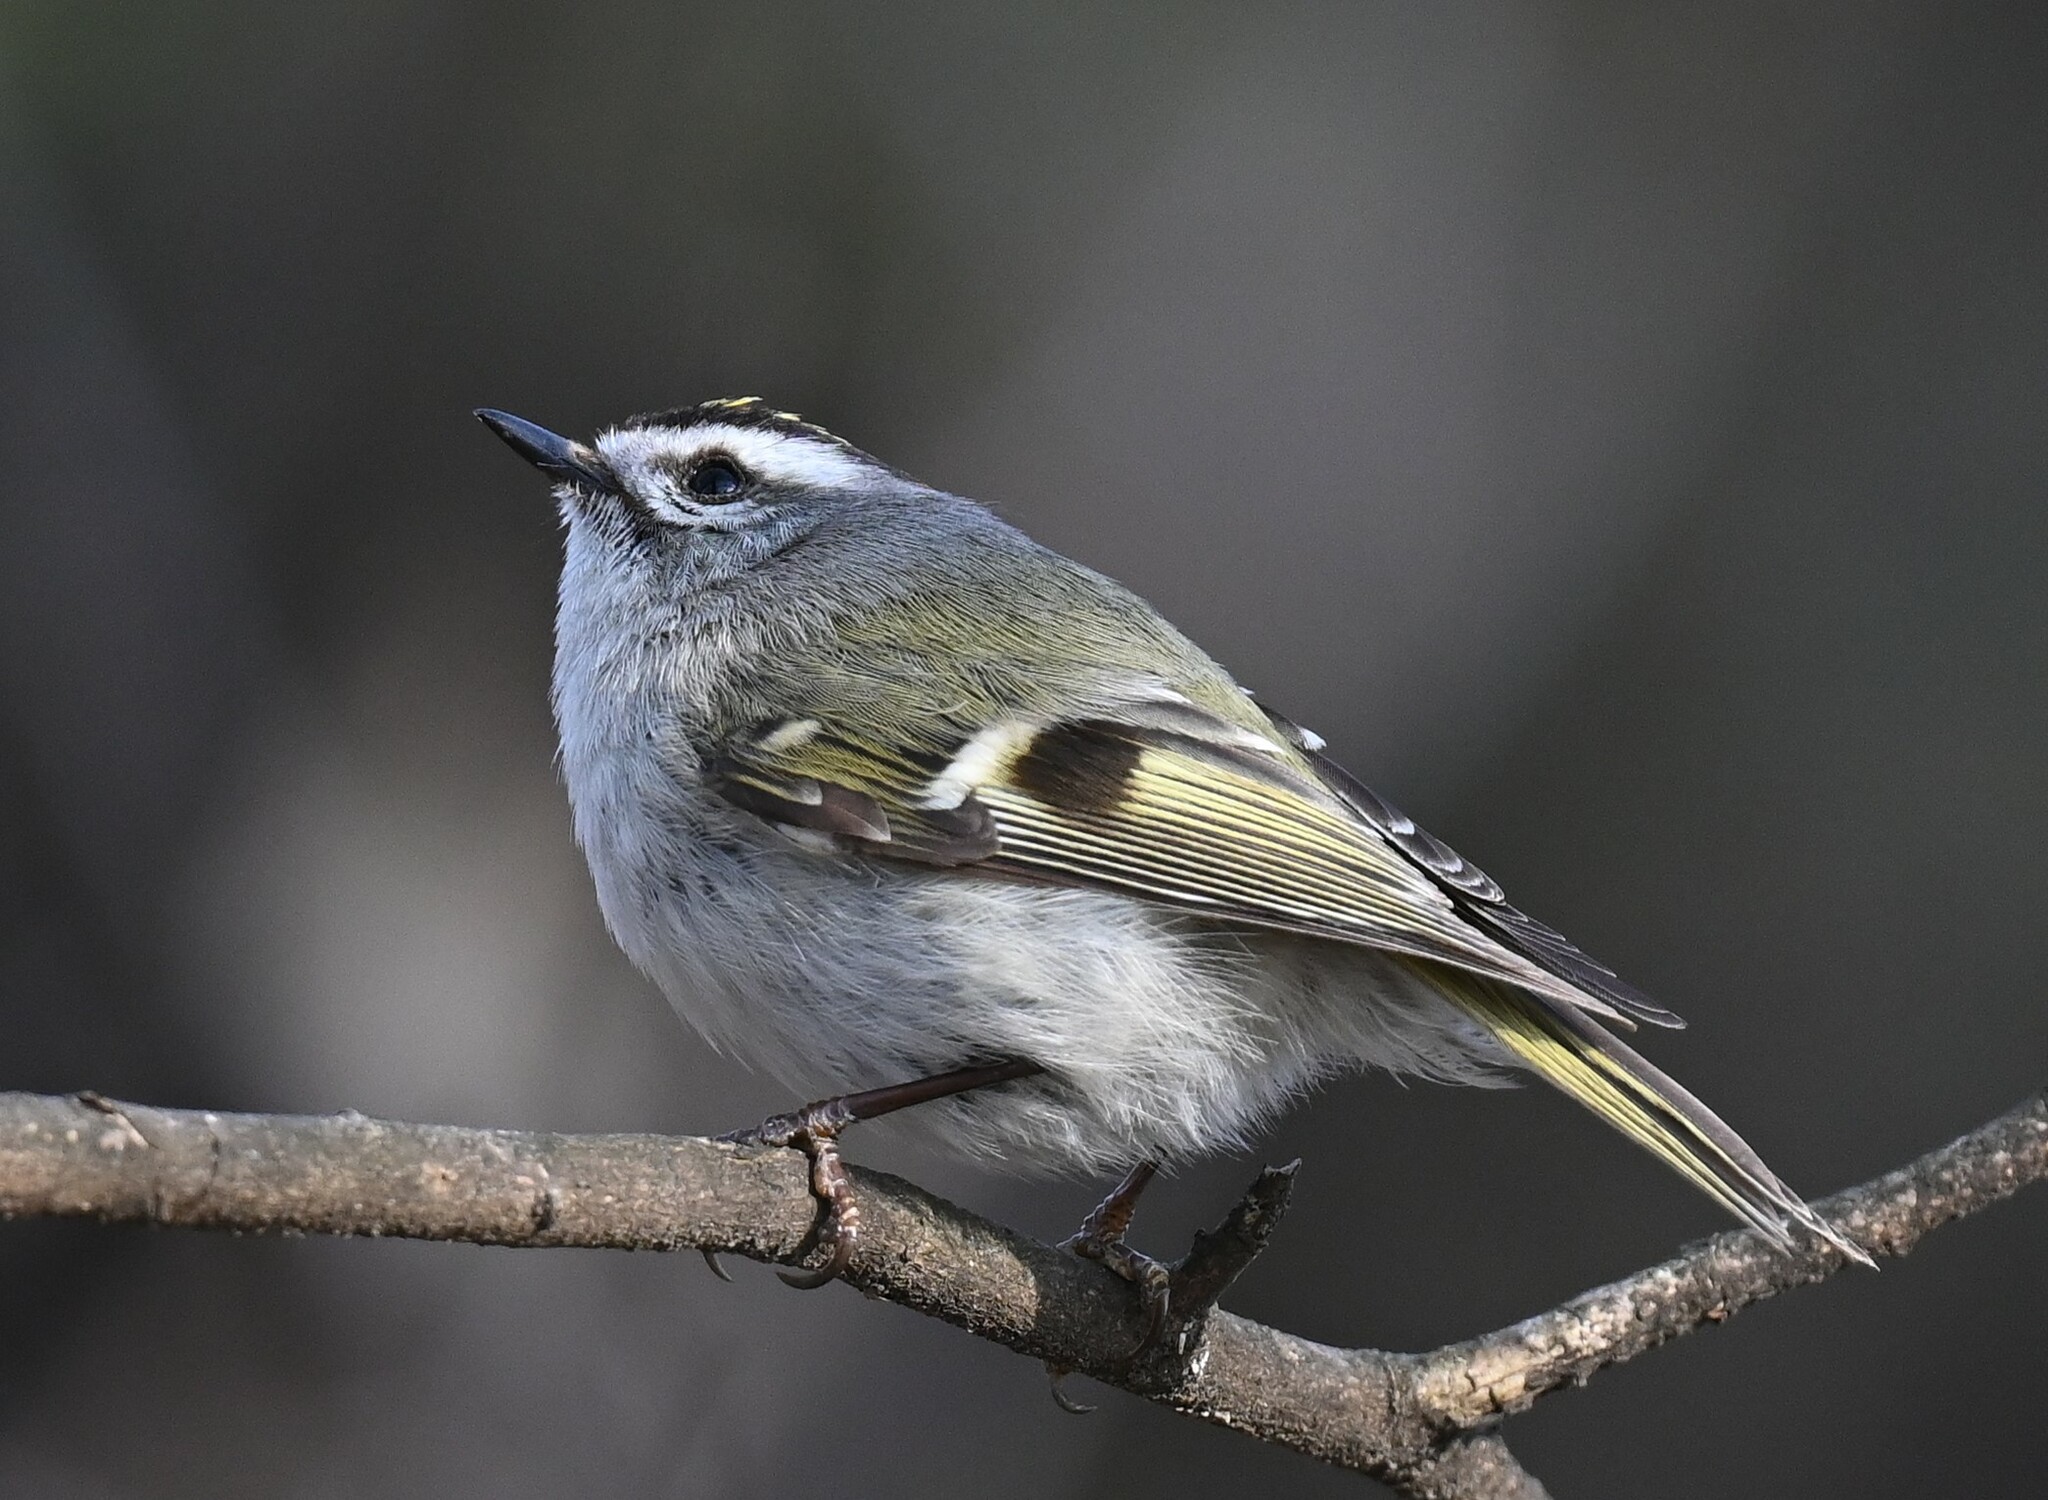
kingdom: Animalia
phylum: Chordata
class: Aves
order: Passeriformes
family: Regulidae
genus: Regulus
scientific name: Regulus satrapa
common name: Golden-crowned kinglet
